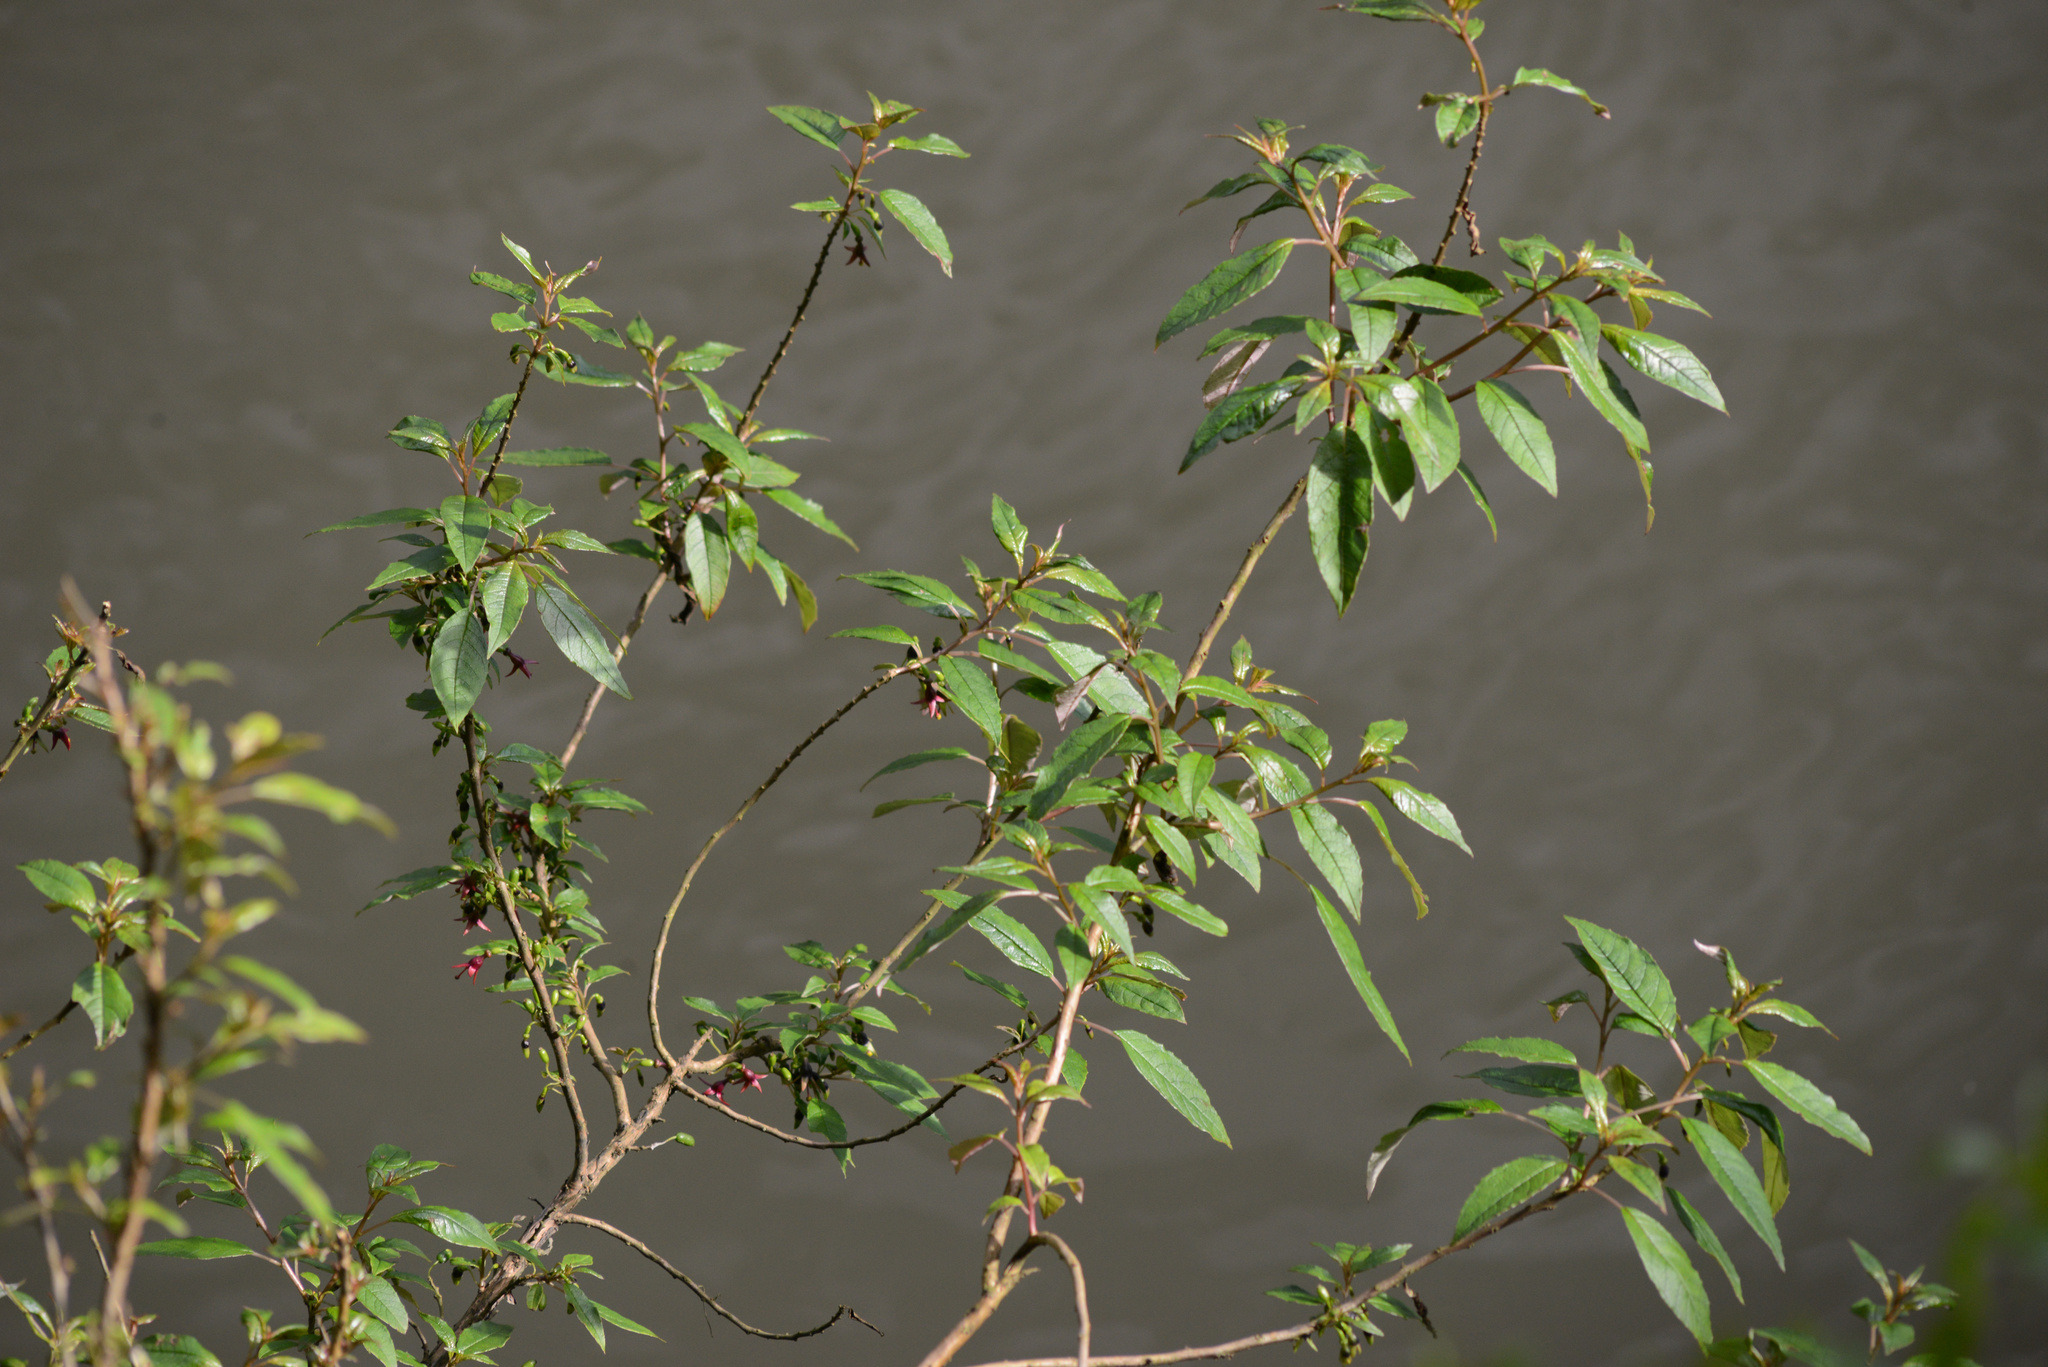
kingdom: Plantae
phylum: Tracheophyta
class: Magnoliopsida
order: Myrtales
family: Onagraceae
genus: Fuchsia
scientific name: Fuchsia excorticata
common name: Tree fuchsia
